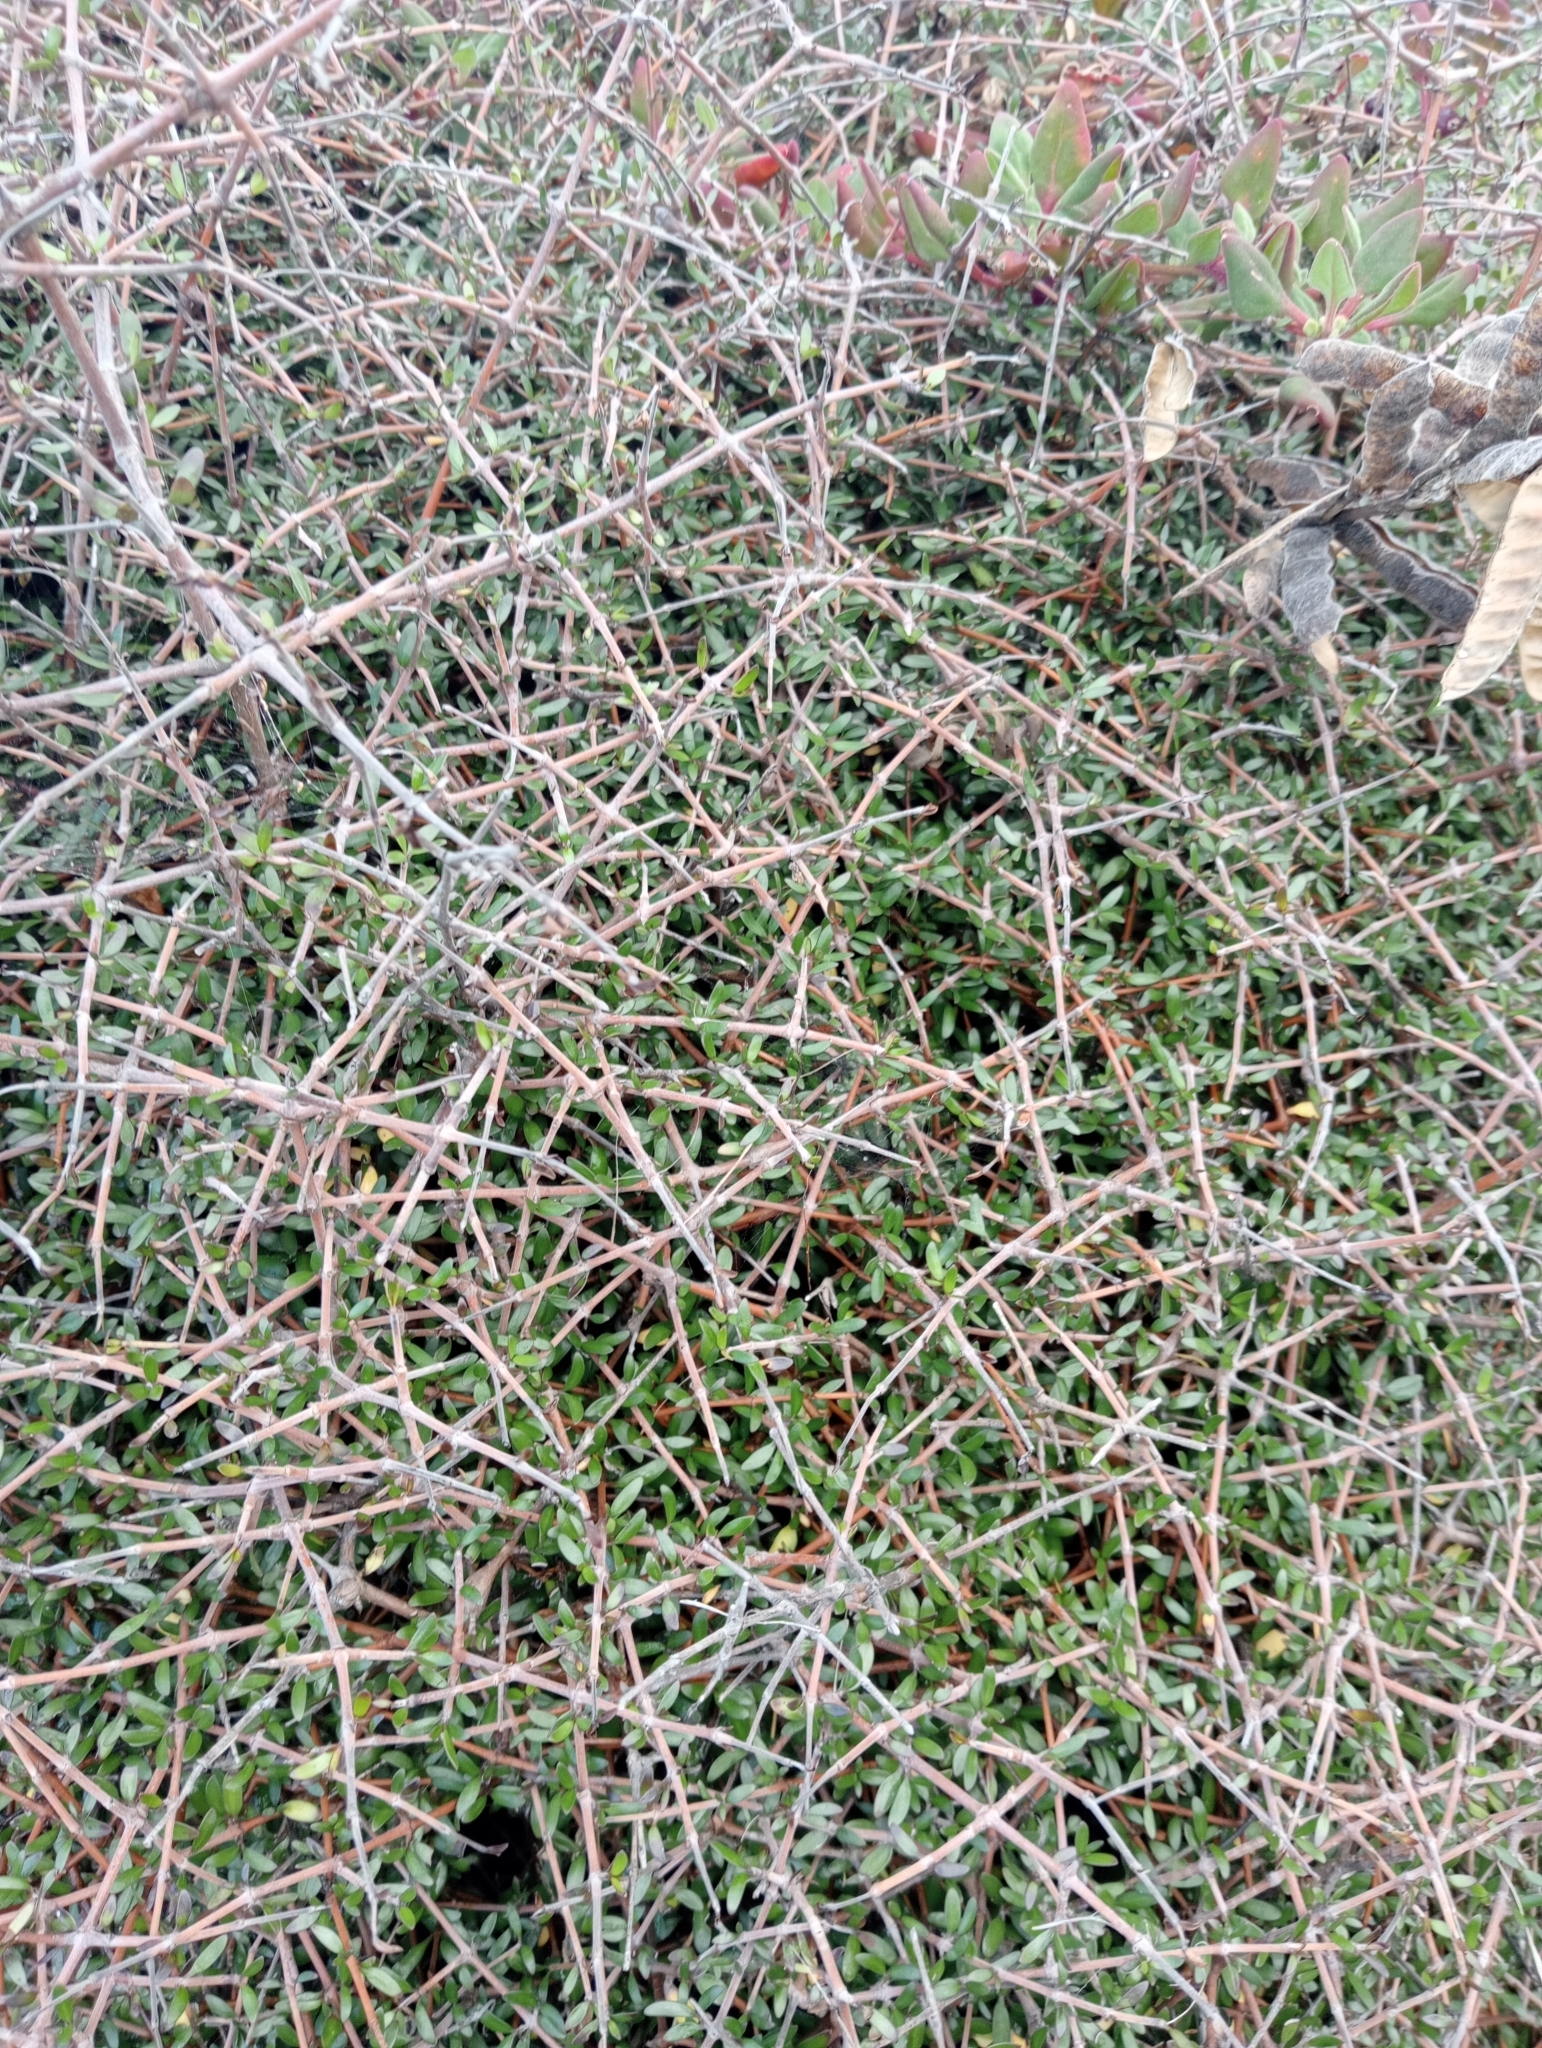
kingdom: Plantae
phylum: Tracheophyta
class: Magnoliopsida
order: Gentianales
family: Rubiaceae
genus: Coprosma
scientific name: Coprosma propinqua
